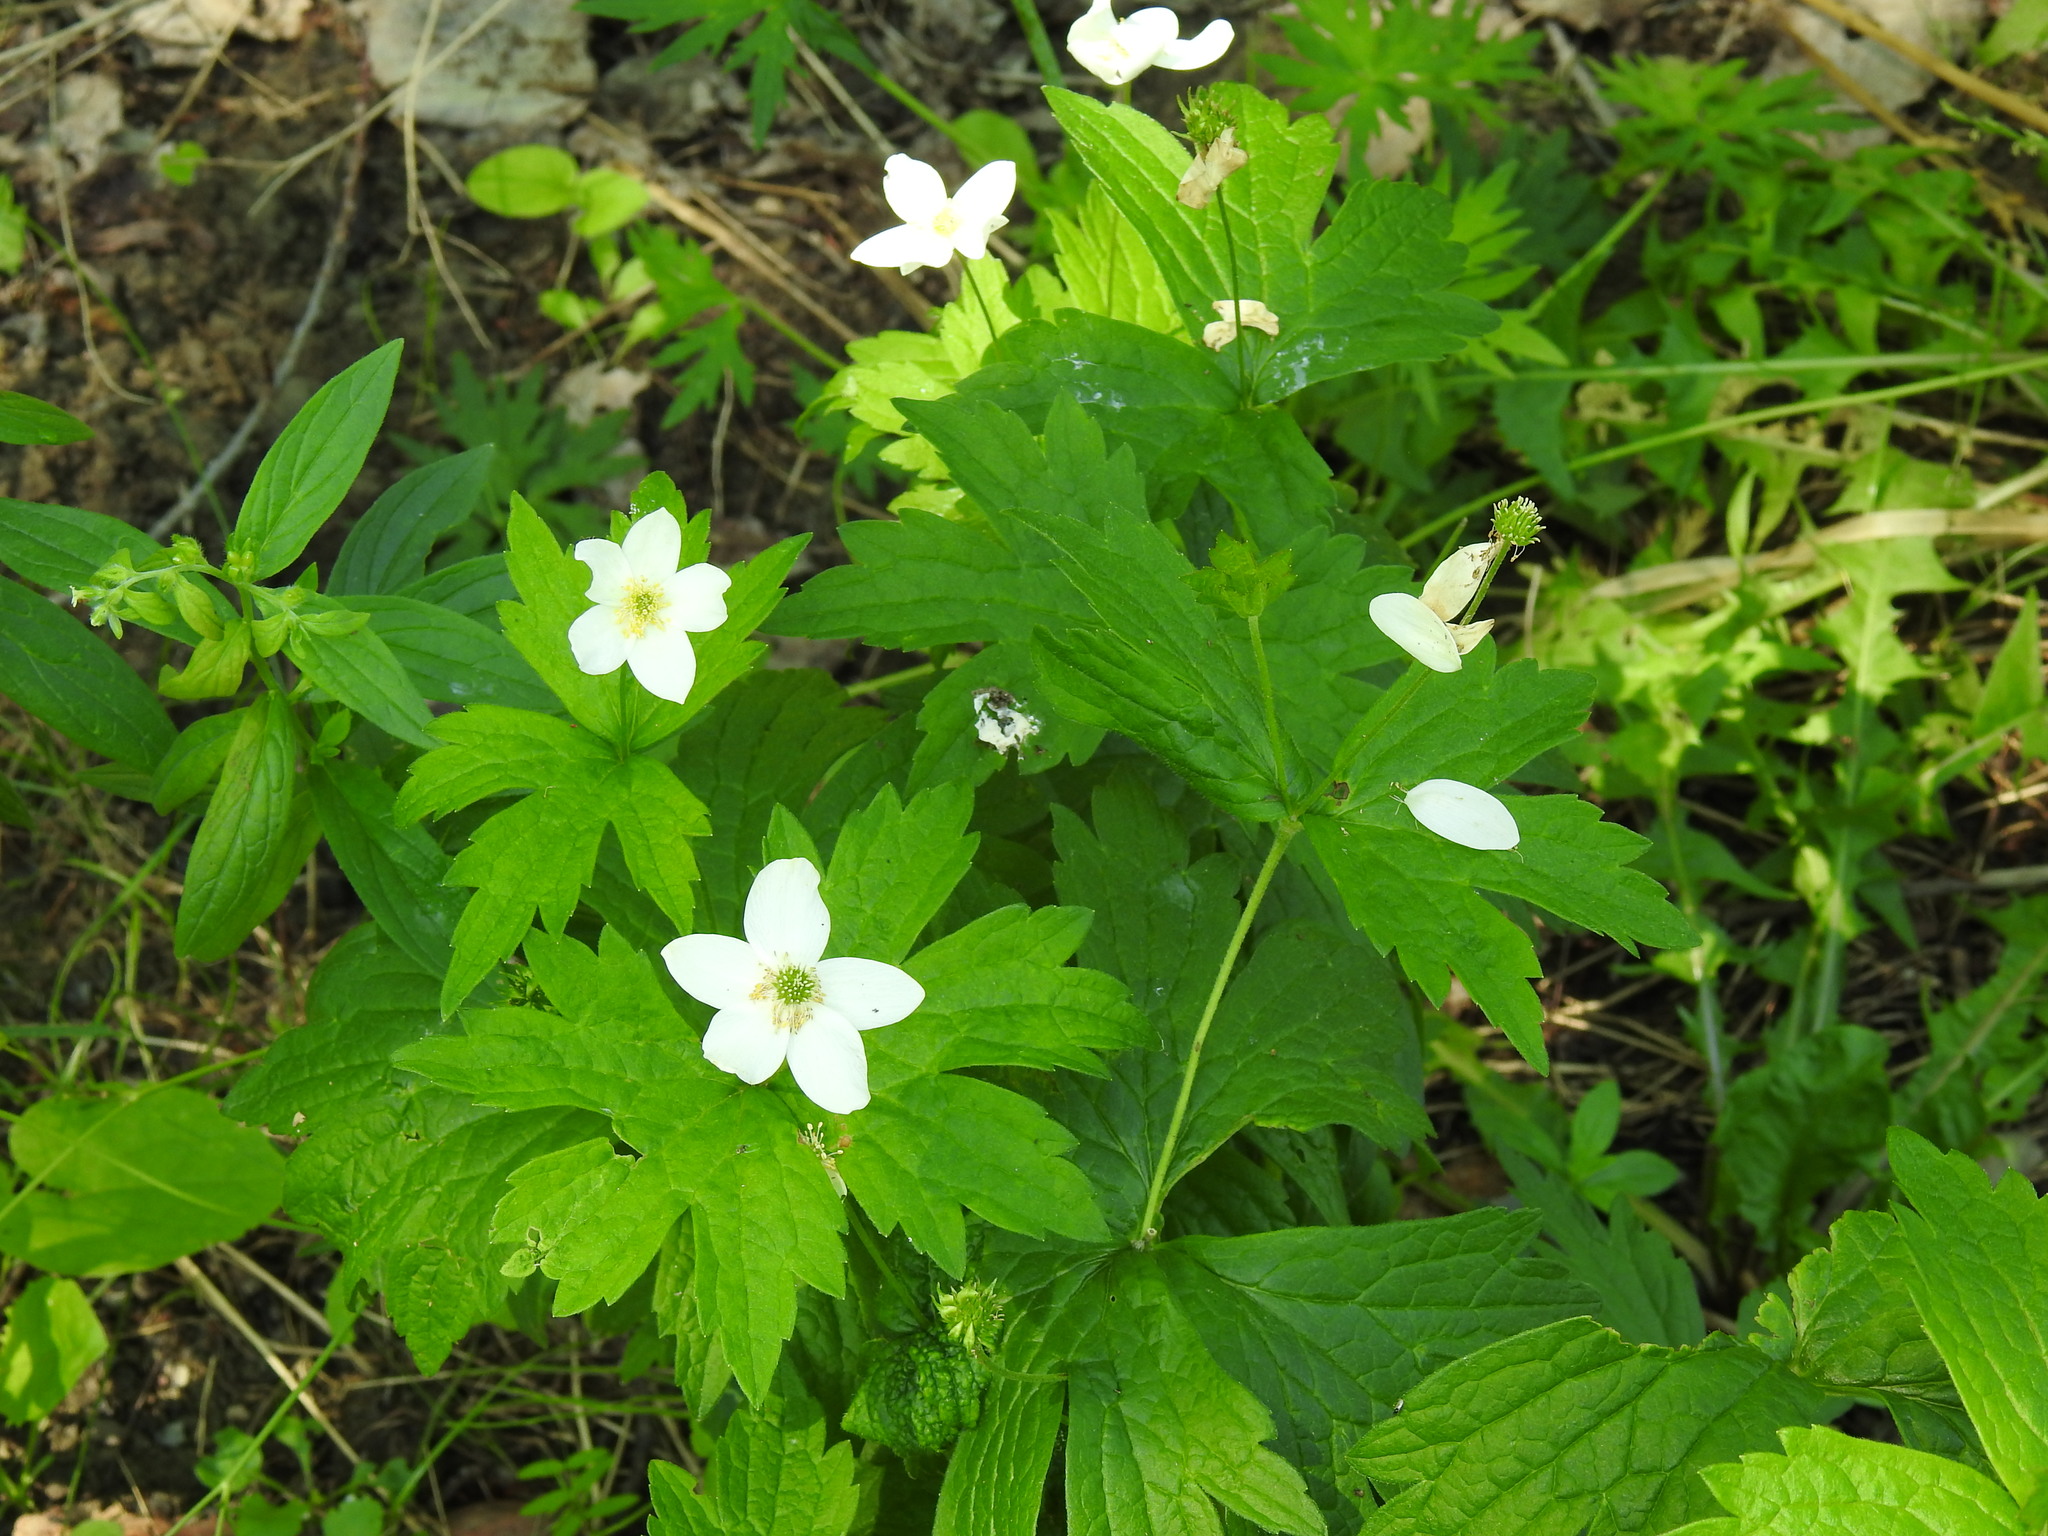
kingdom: Plantae
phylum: Tracheophyta
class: Magnoliopsida
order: Ranunculales
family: Ranunculaceae
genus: Anemonastrum
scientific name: Anemonastrum canadense
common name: Canada anemone
